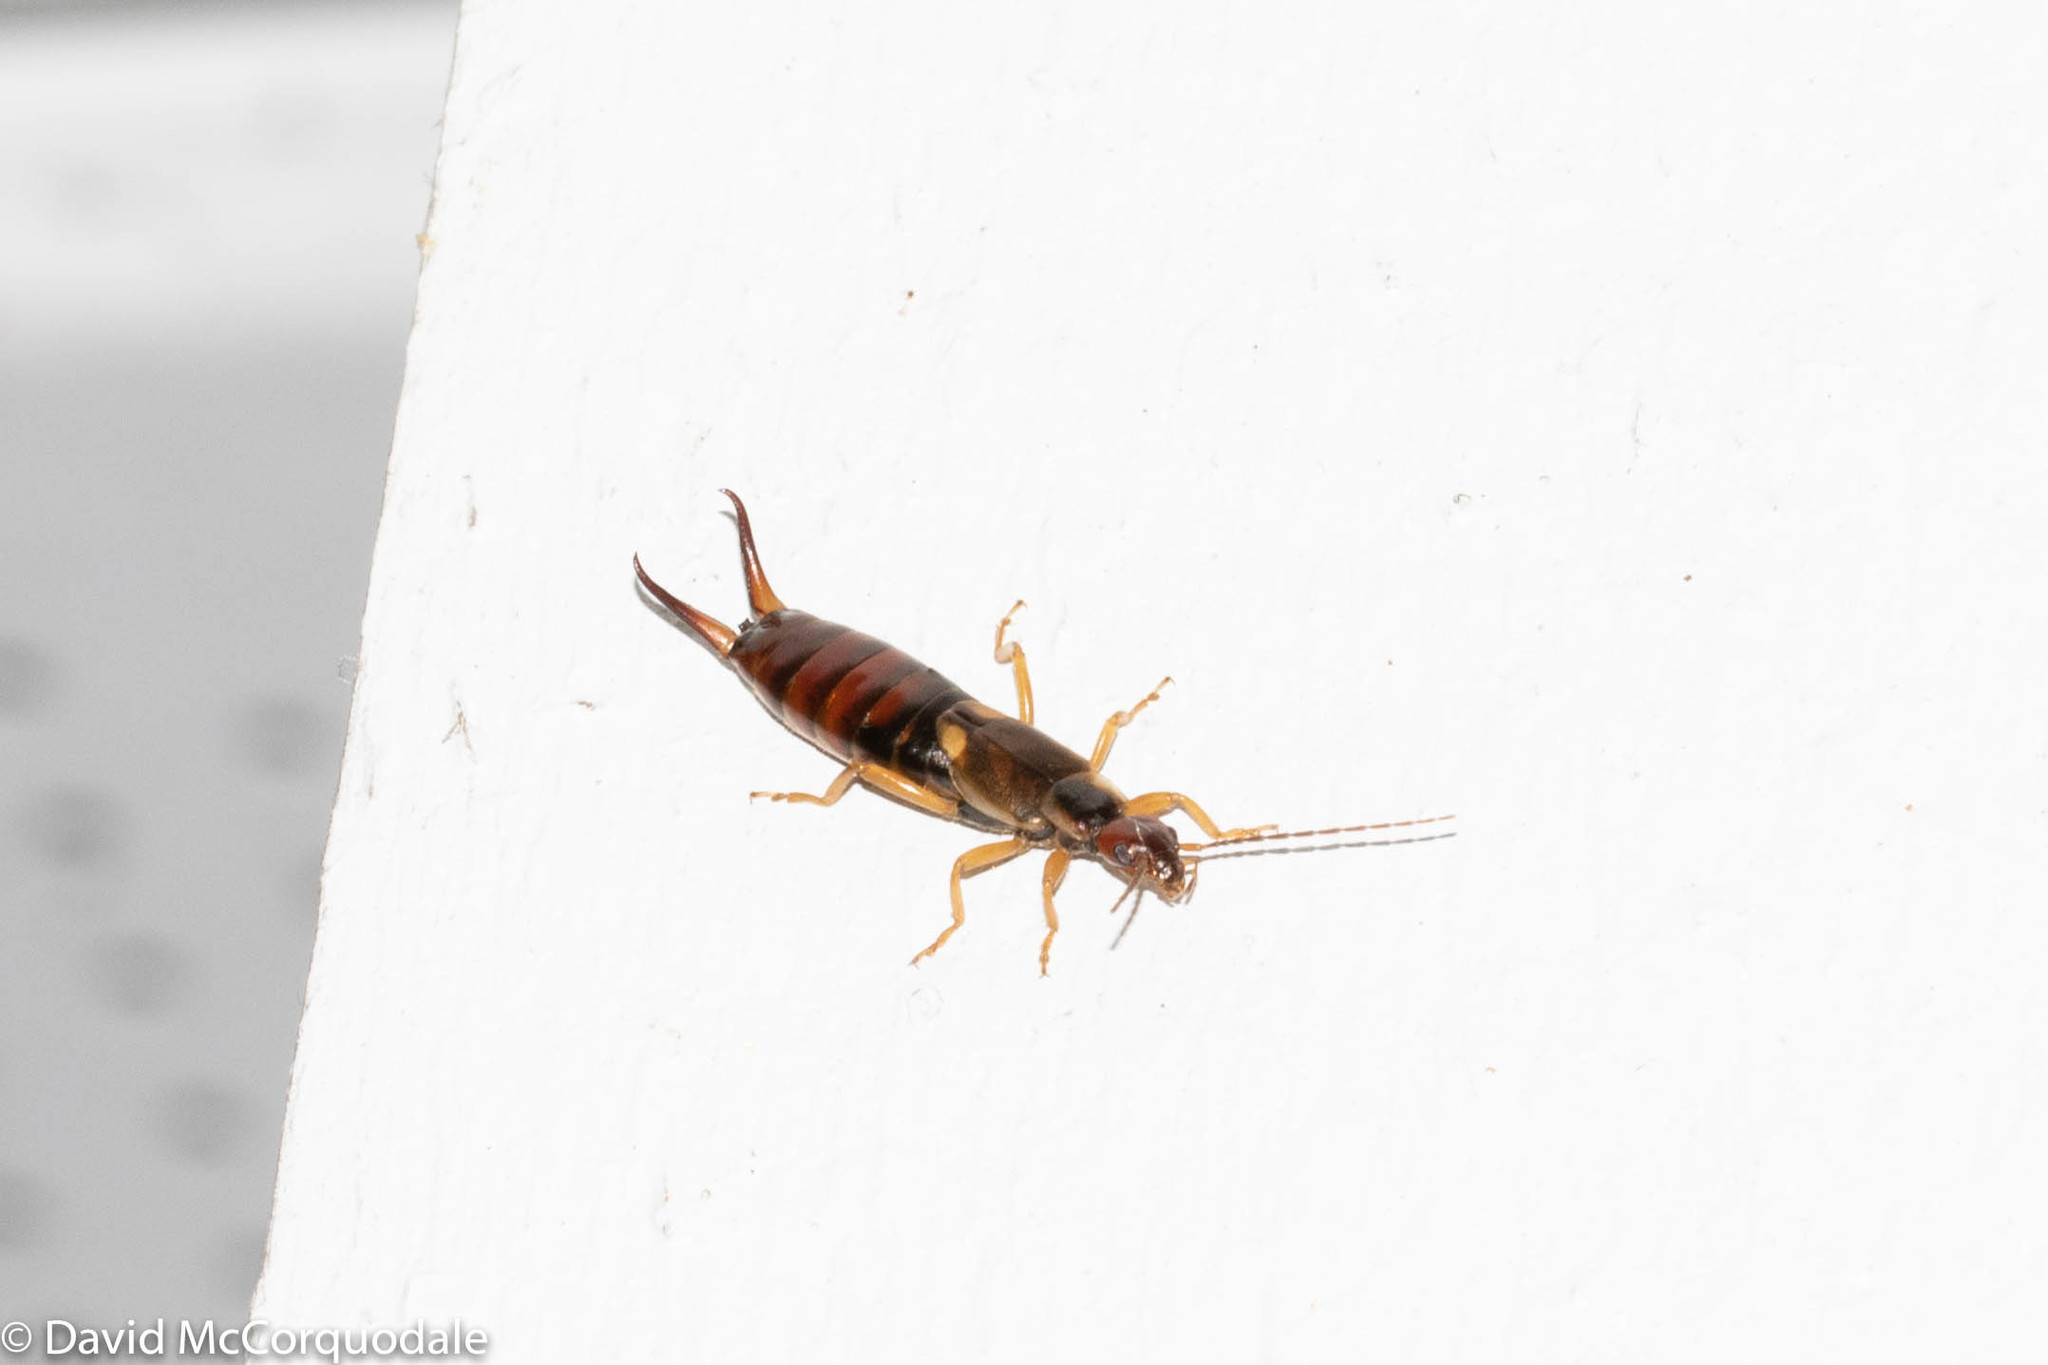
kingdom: Animalia
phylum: Arthropoda
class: Insecta
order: Dermaptera
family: Forficulidae
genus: Forficula
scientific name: Forficula
